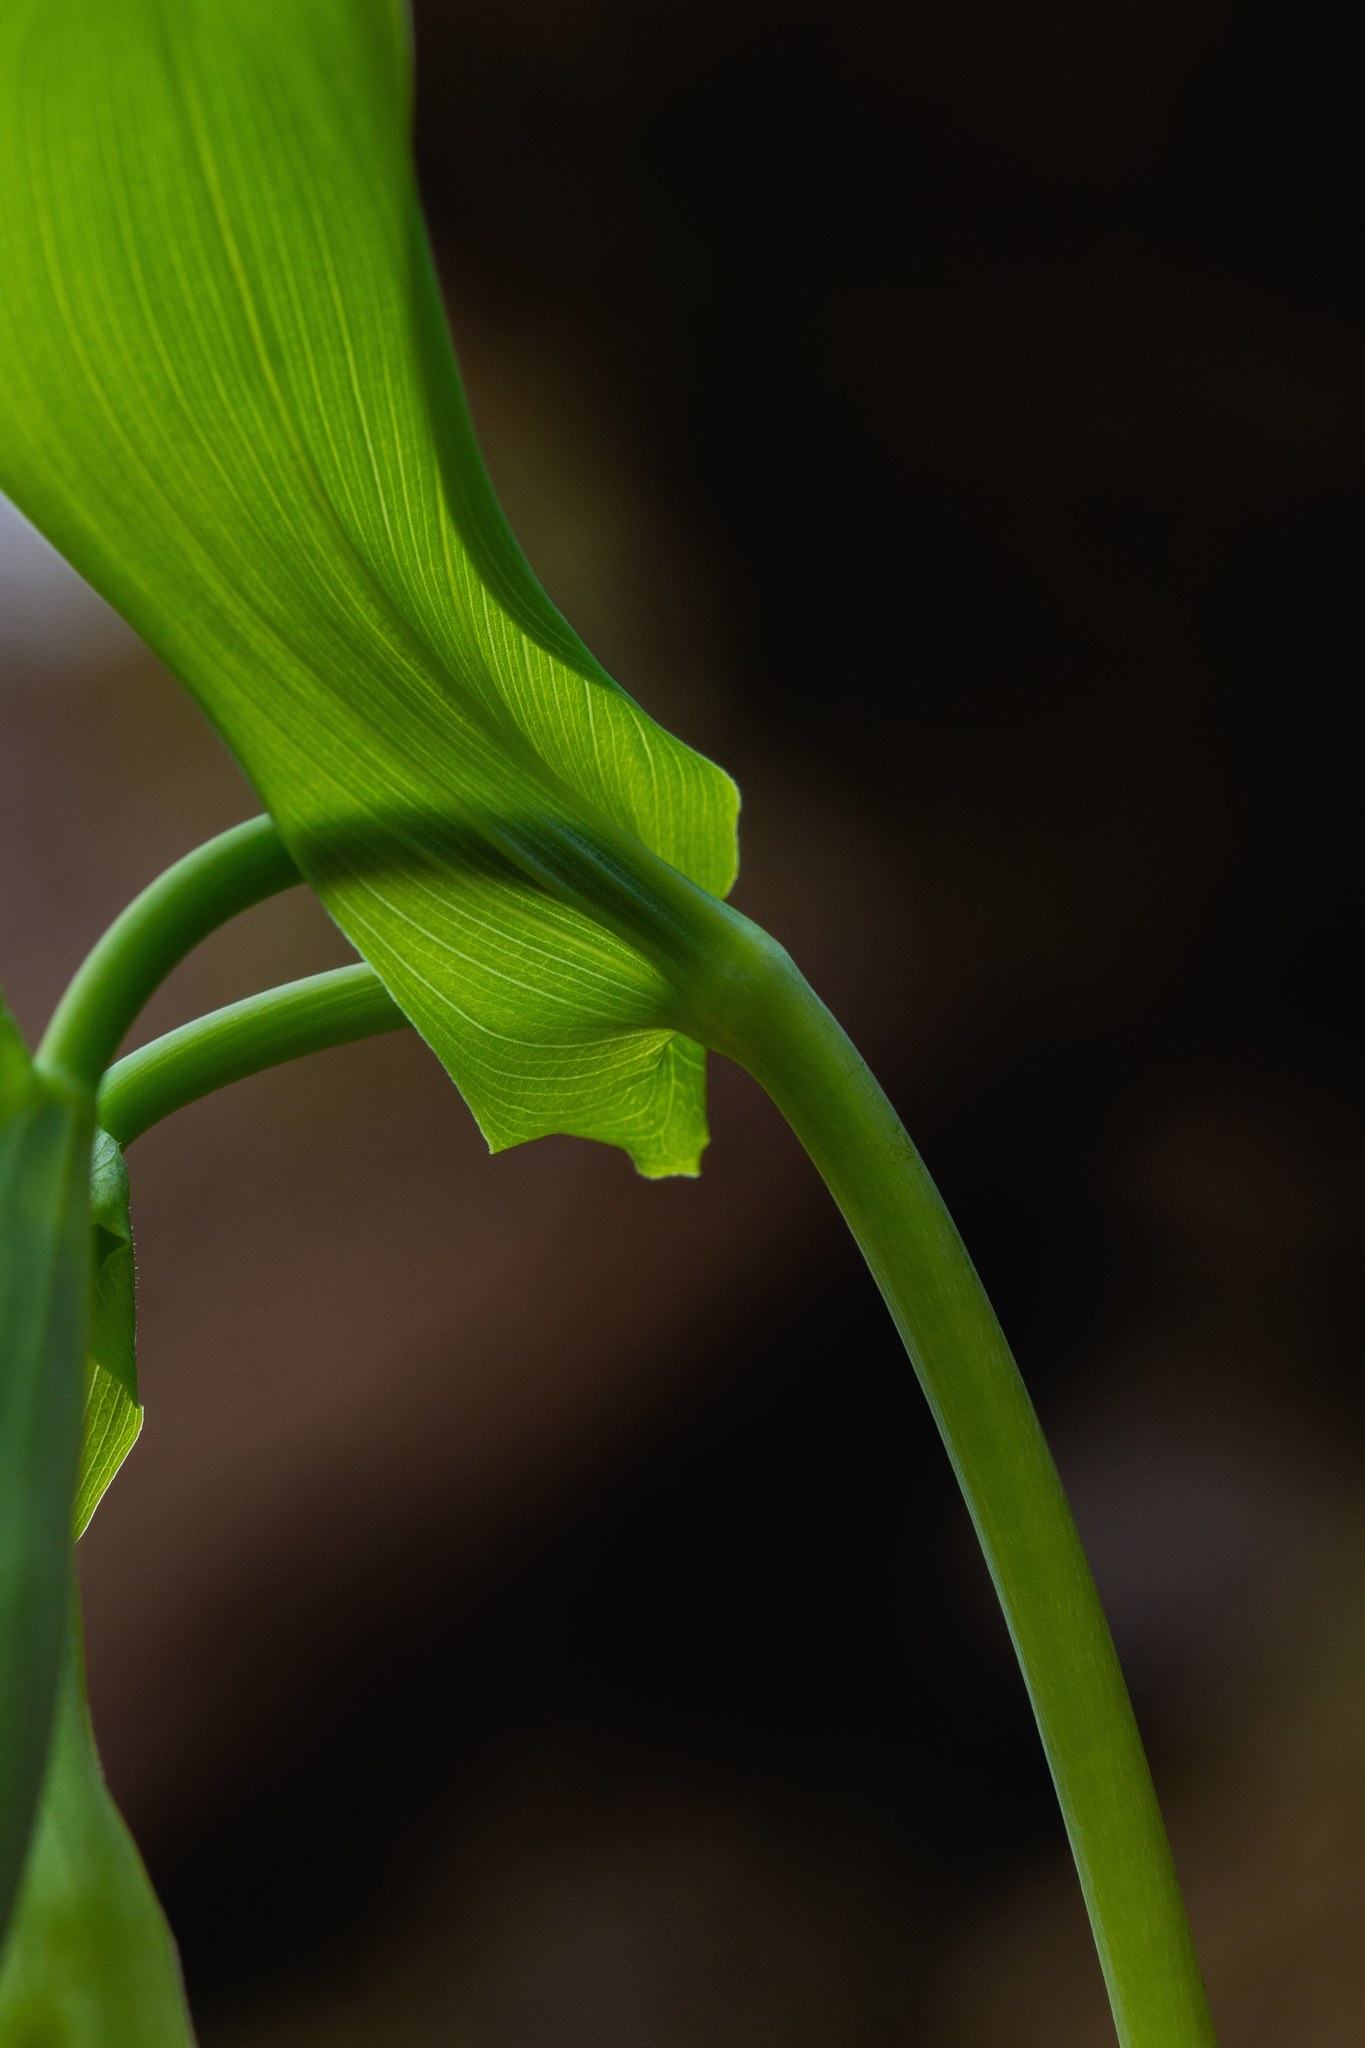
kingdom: Plantae
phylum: Tracheophyta
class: Liliopsida
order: Liliales
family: Colchicaceae
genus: Uvularia
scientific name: Uvularia grandiflora
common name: Bellwort
